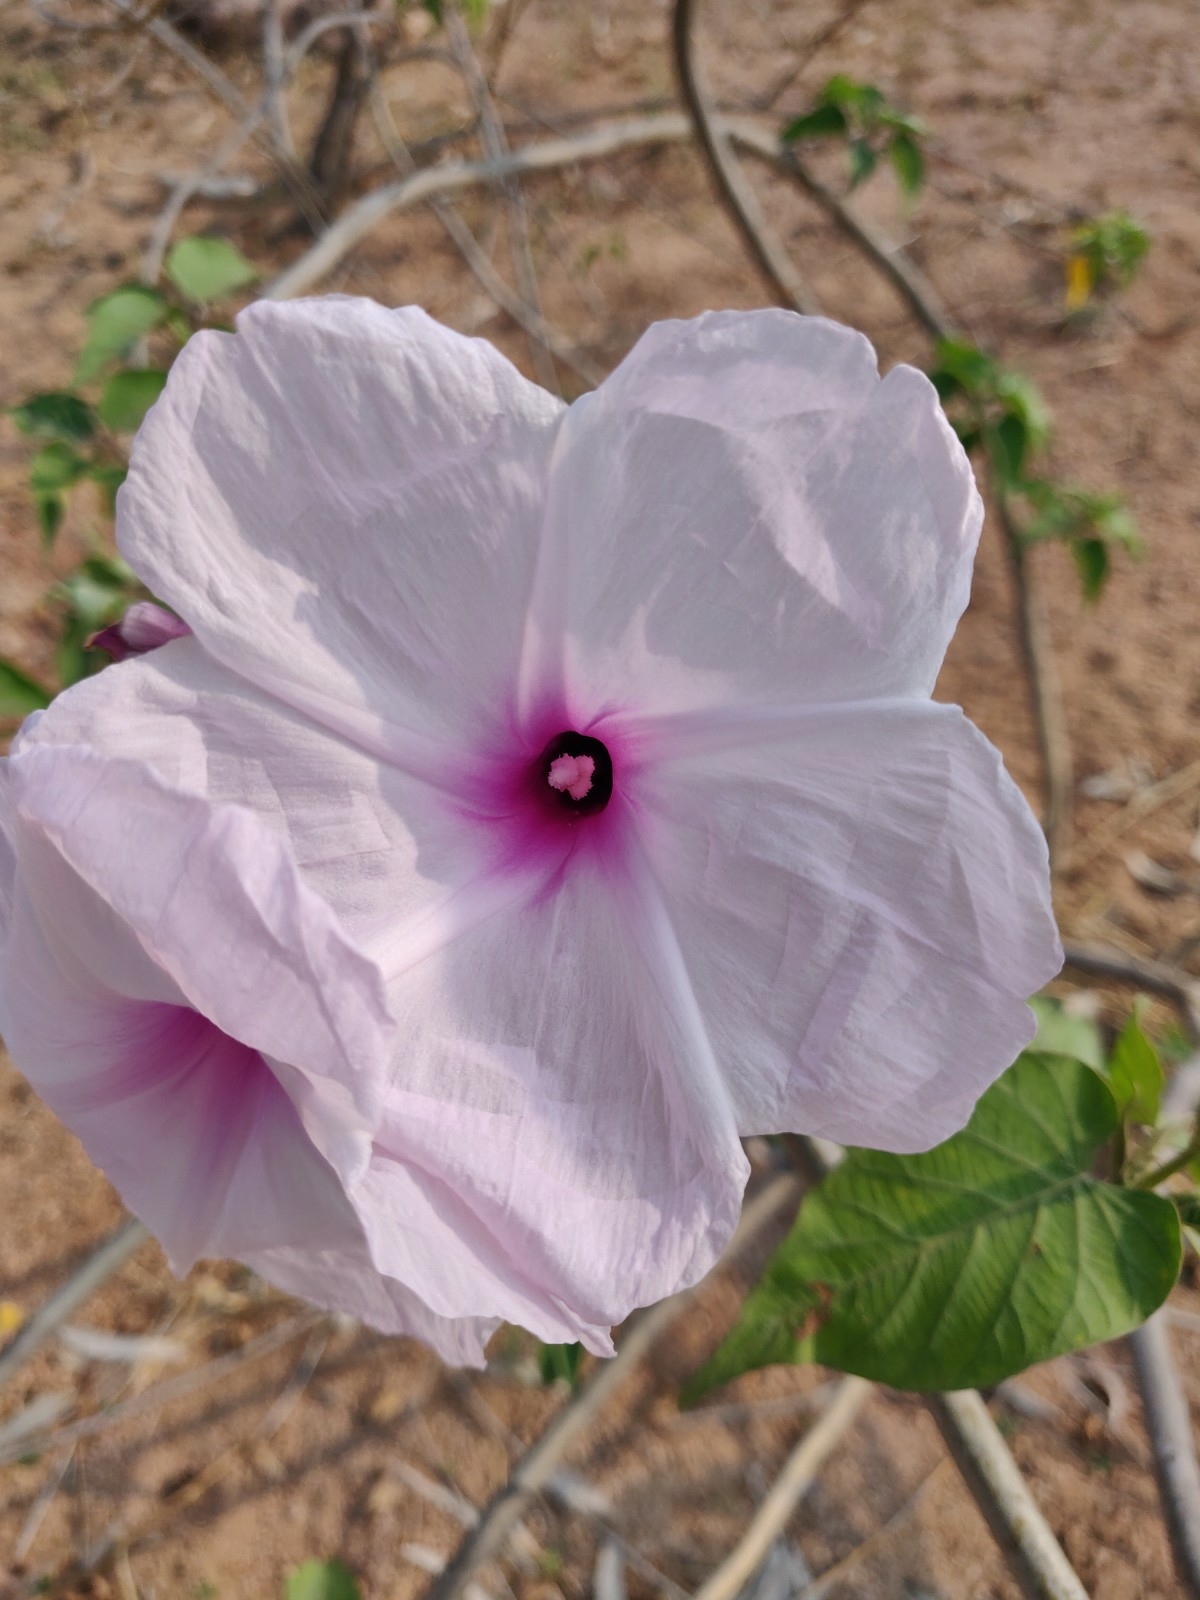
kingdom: Plantae
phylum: Tracheophyta
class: Magnoliopsida
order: Solanales
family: Convolvulaceae
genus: Ipomoea
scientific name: Ipomoea carnea
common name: Morning-glory
